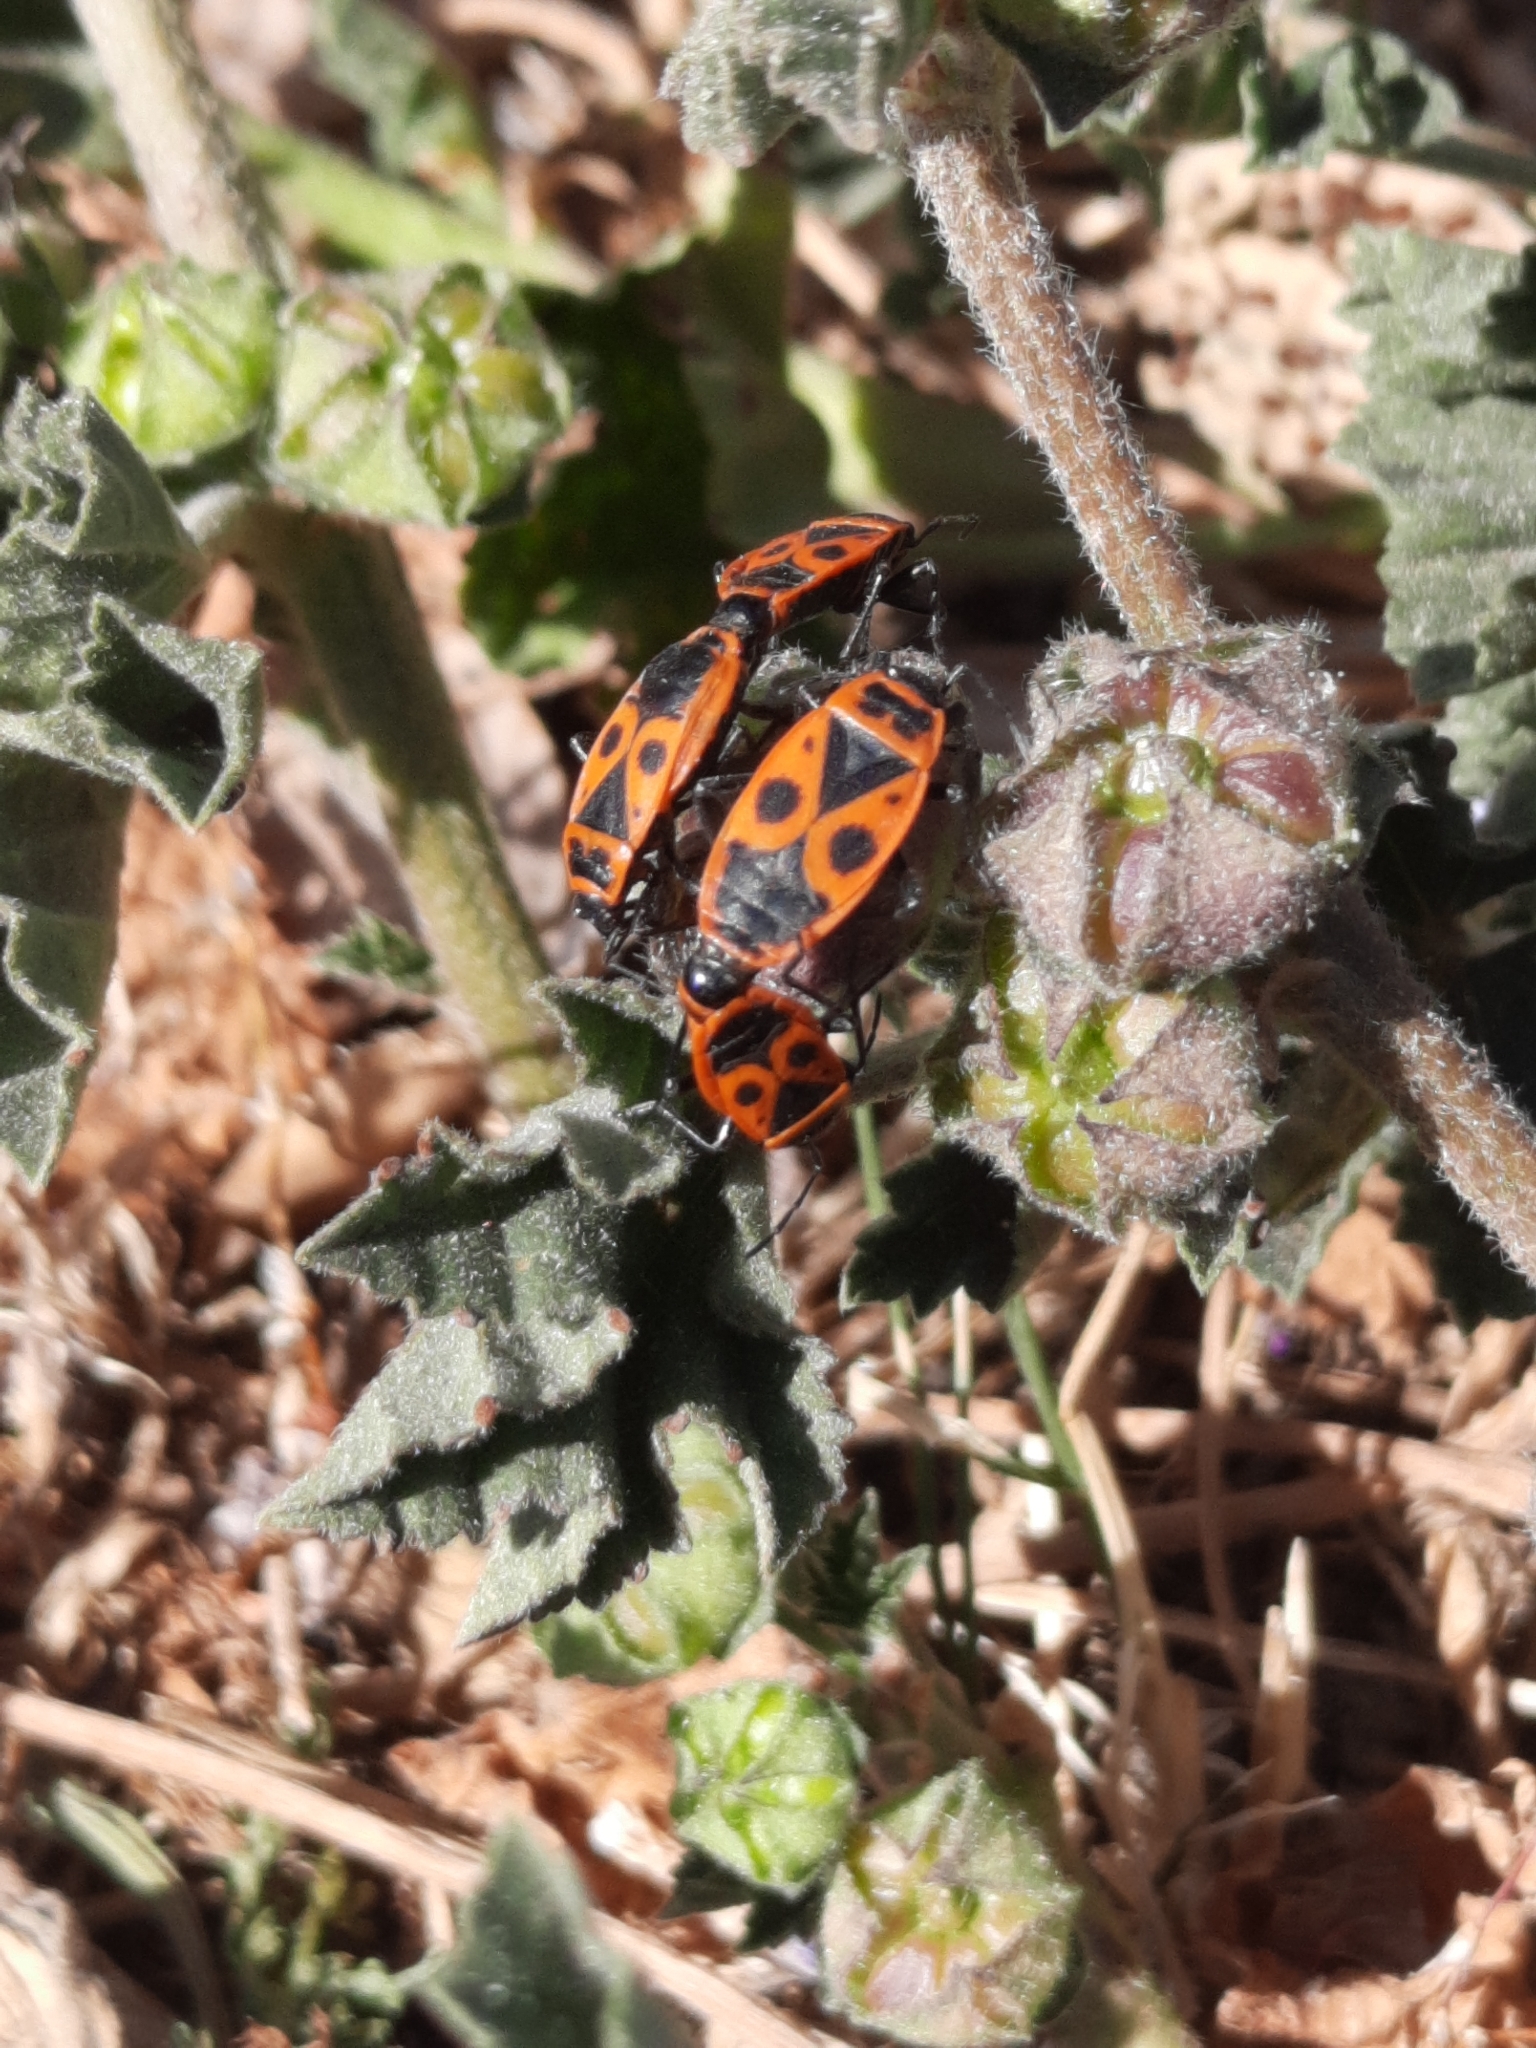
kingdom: Animalia
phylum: Arthropoda
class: Insecta
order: Hemiptera
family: Pyrrhocoridae
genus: Pyrrhocoris
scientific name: Pyrrhocoris apterus
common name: Firebug
